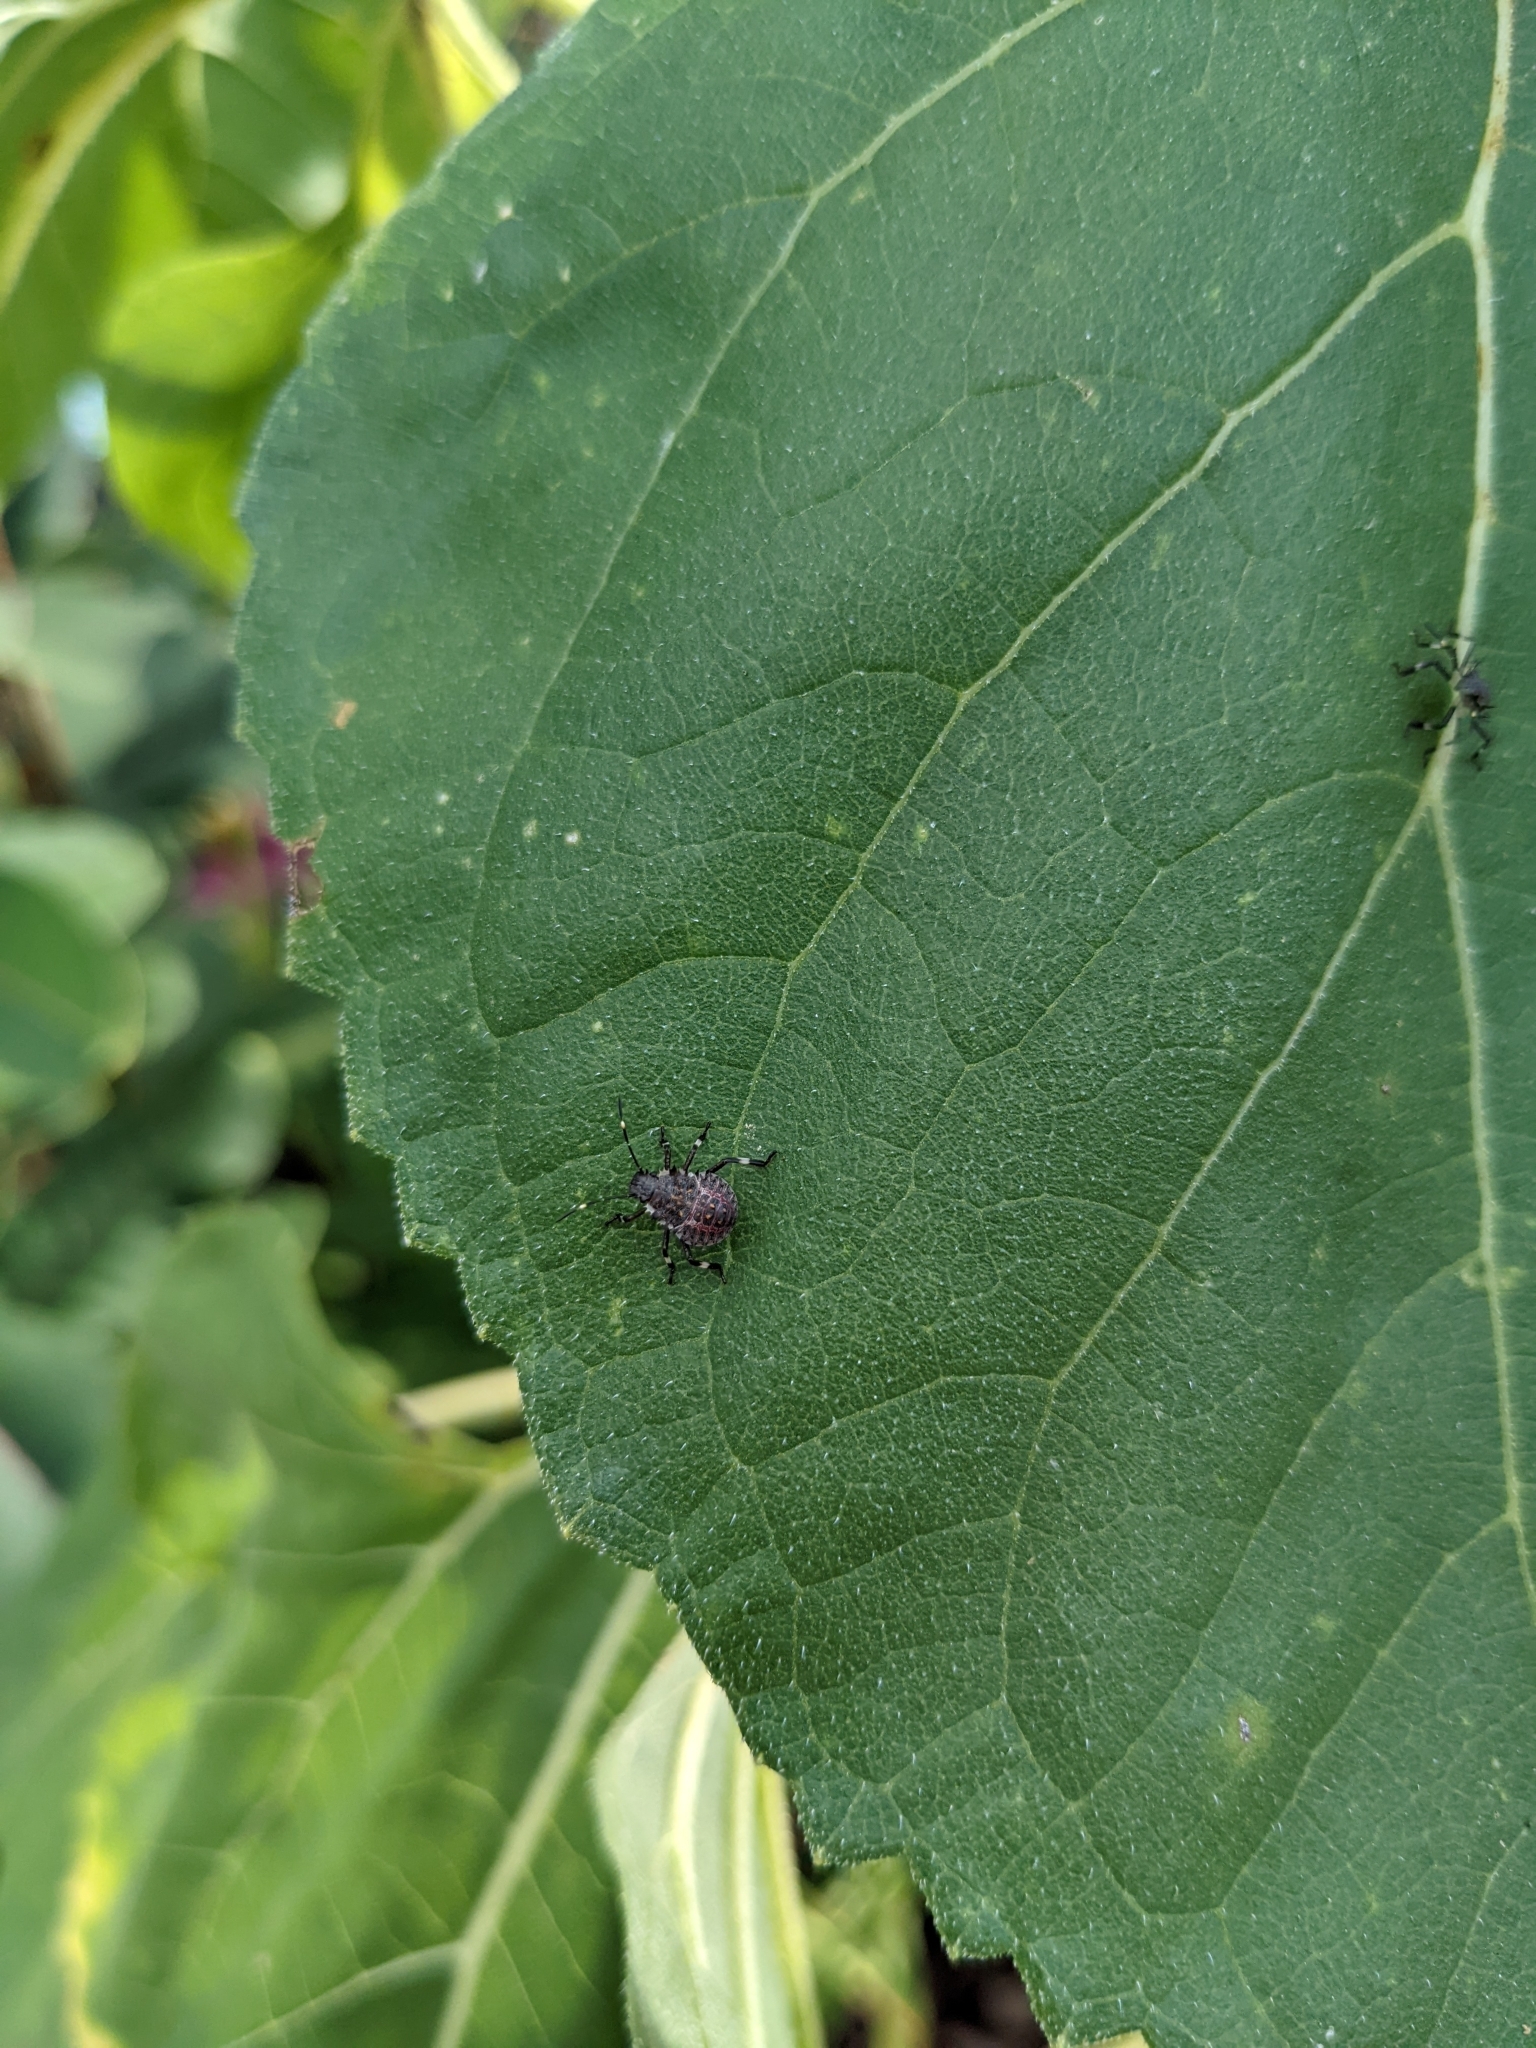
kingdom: Animalia
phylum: Arthropoda
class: Insecta
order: Hemiptera
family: Pentatomidae
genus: Halyomorpha
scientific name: Halyomorpha halys
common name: Brown marmorated stink bug
